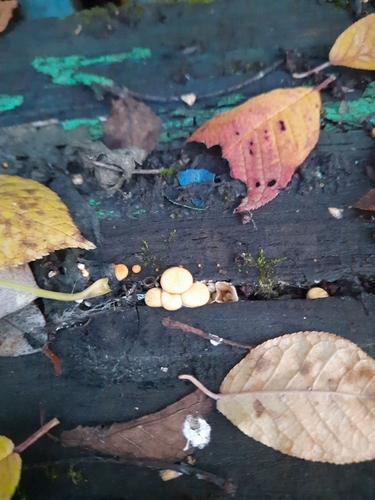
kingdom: Fungi
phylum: Basidiomycota
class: Agaricomycetes
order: Agaricales
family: Nidulariaceae
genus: Crucibulum
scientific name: Crucibulum laeve
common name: Common bird's nest
